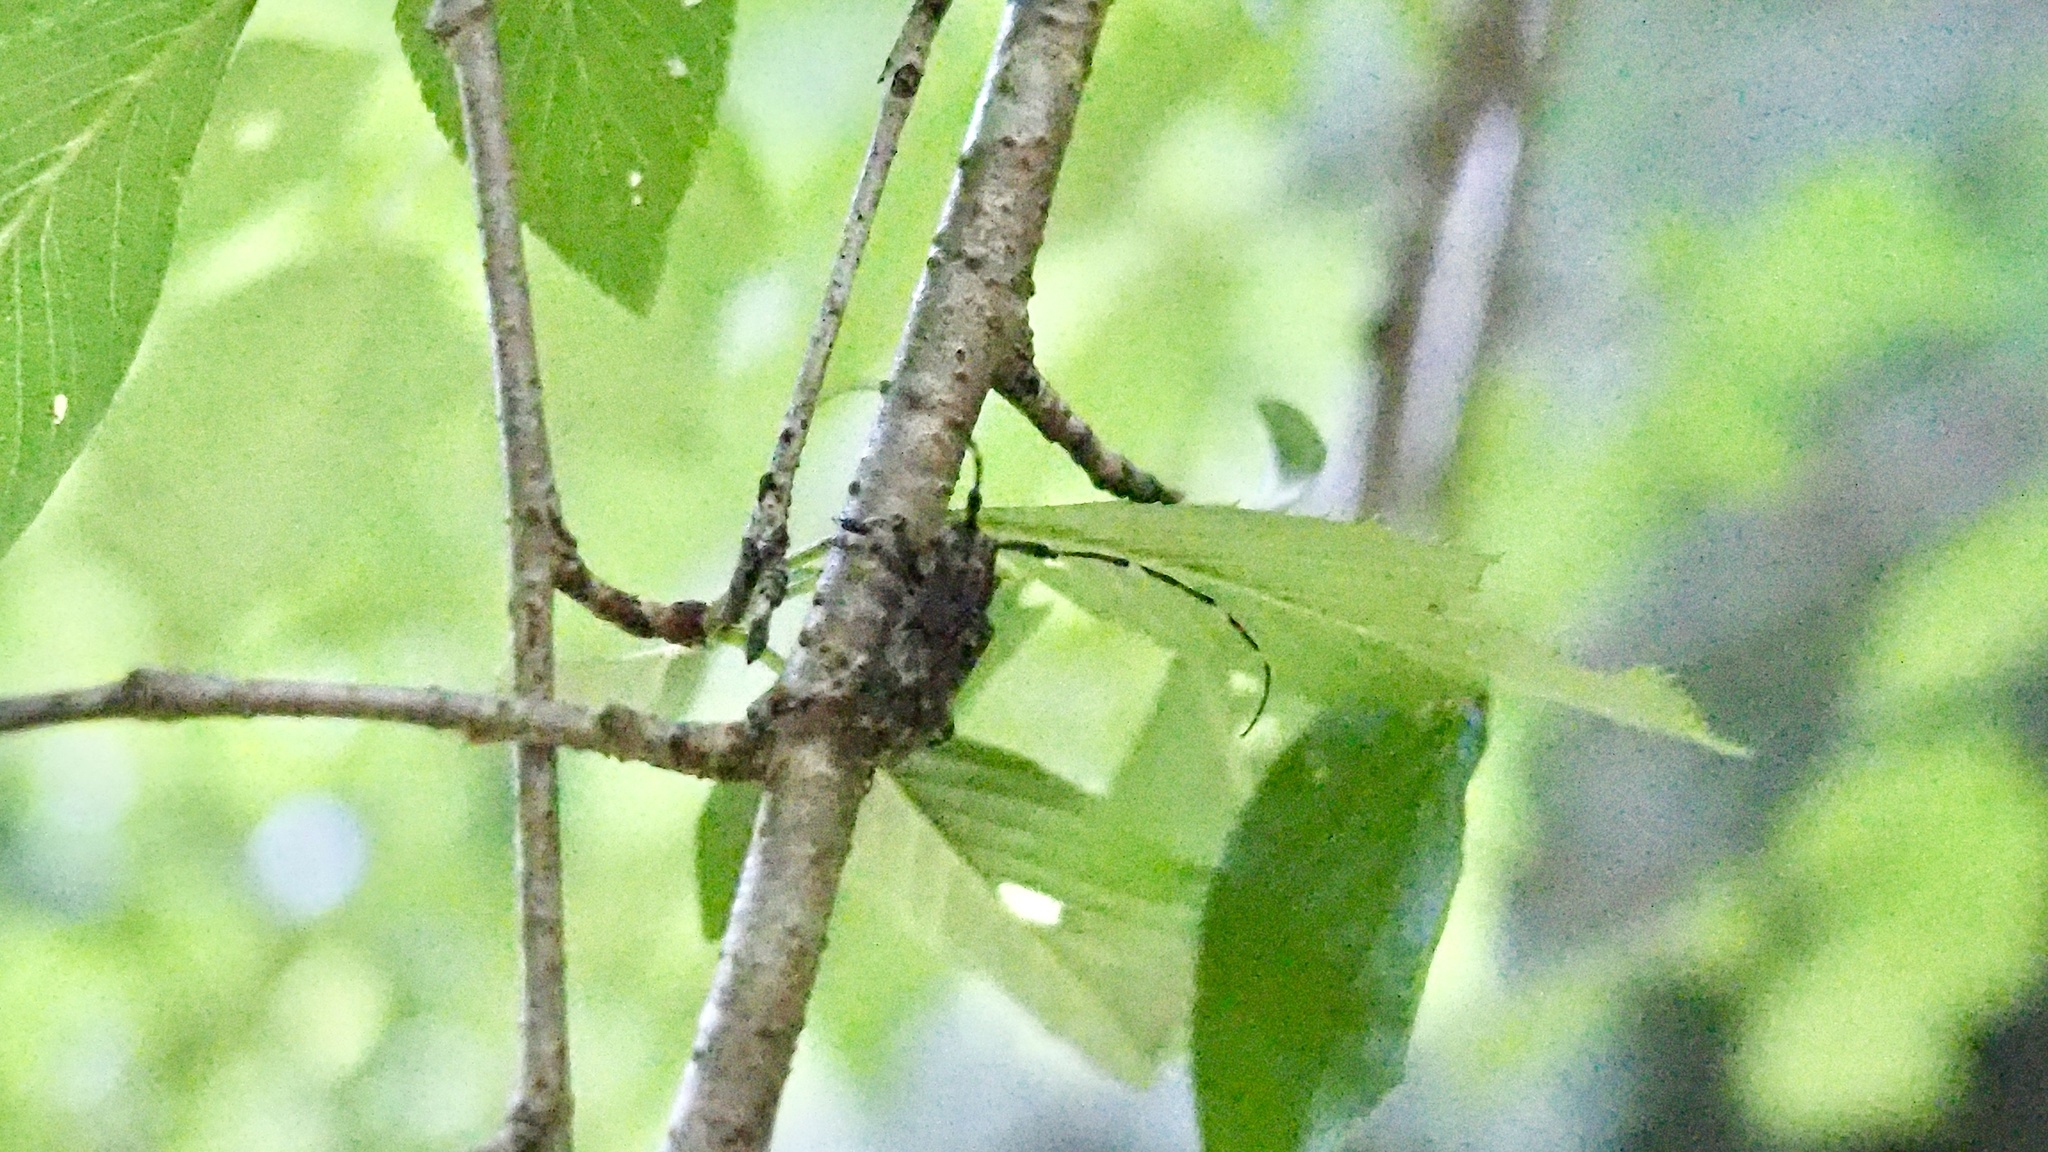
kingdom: Animalia
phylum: Arthropoda
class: Insecta
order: Coleoptera
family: Cerambycidae
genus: Mesosa
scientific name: Mesosa longipennis
